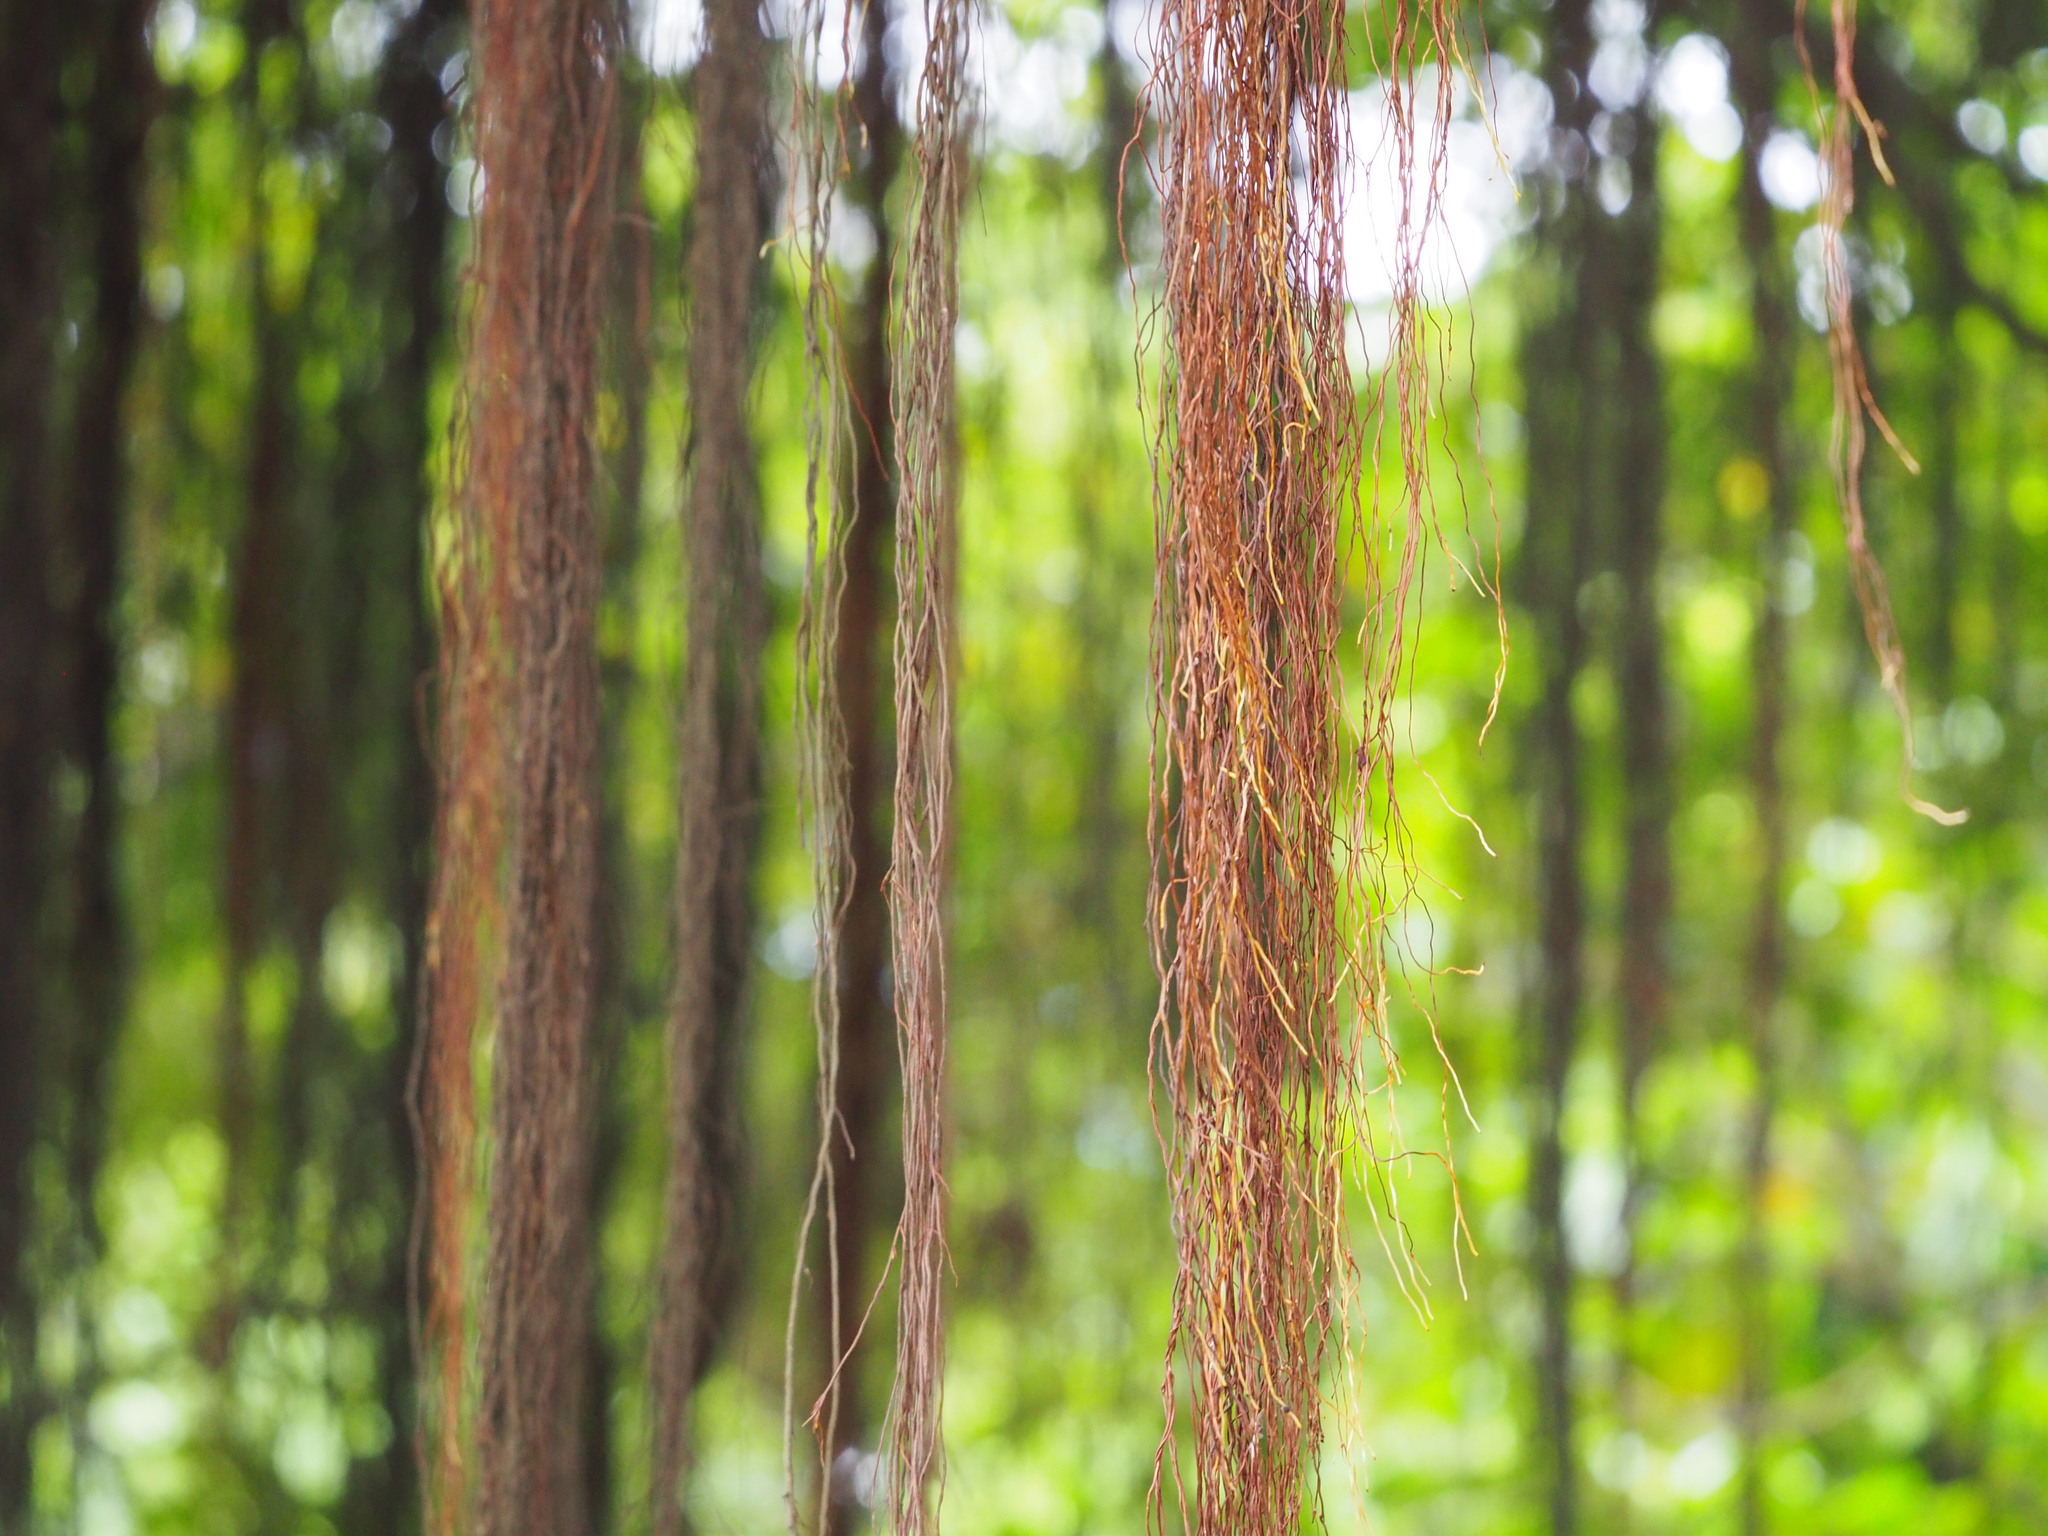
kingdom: Plantae
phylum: Tracheophyta
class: Magnoliopsida
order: Rosales
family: Moraceae
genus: Ficus
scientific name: Ficus microcarpa
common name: Chinese banyan
